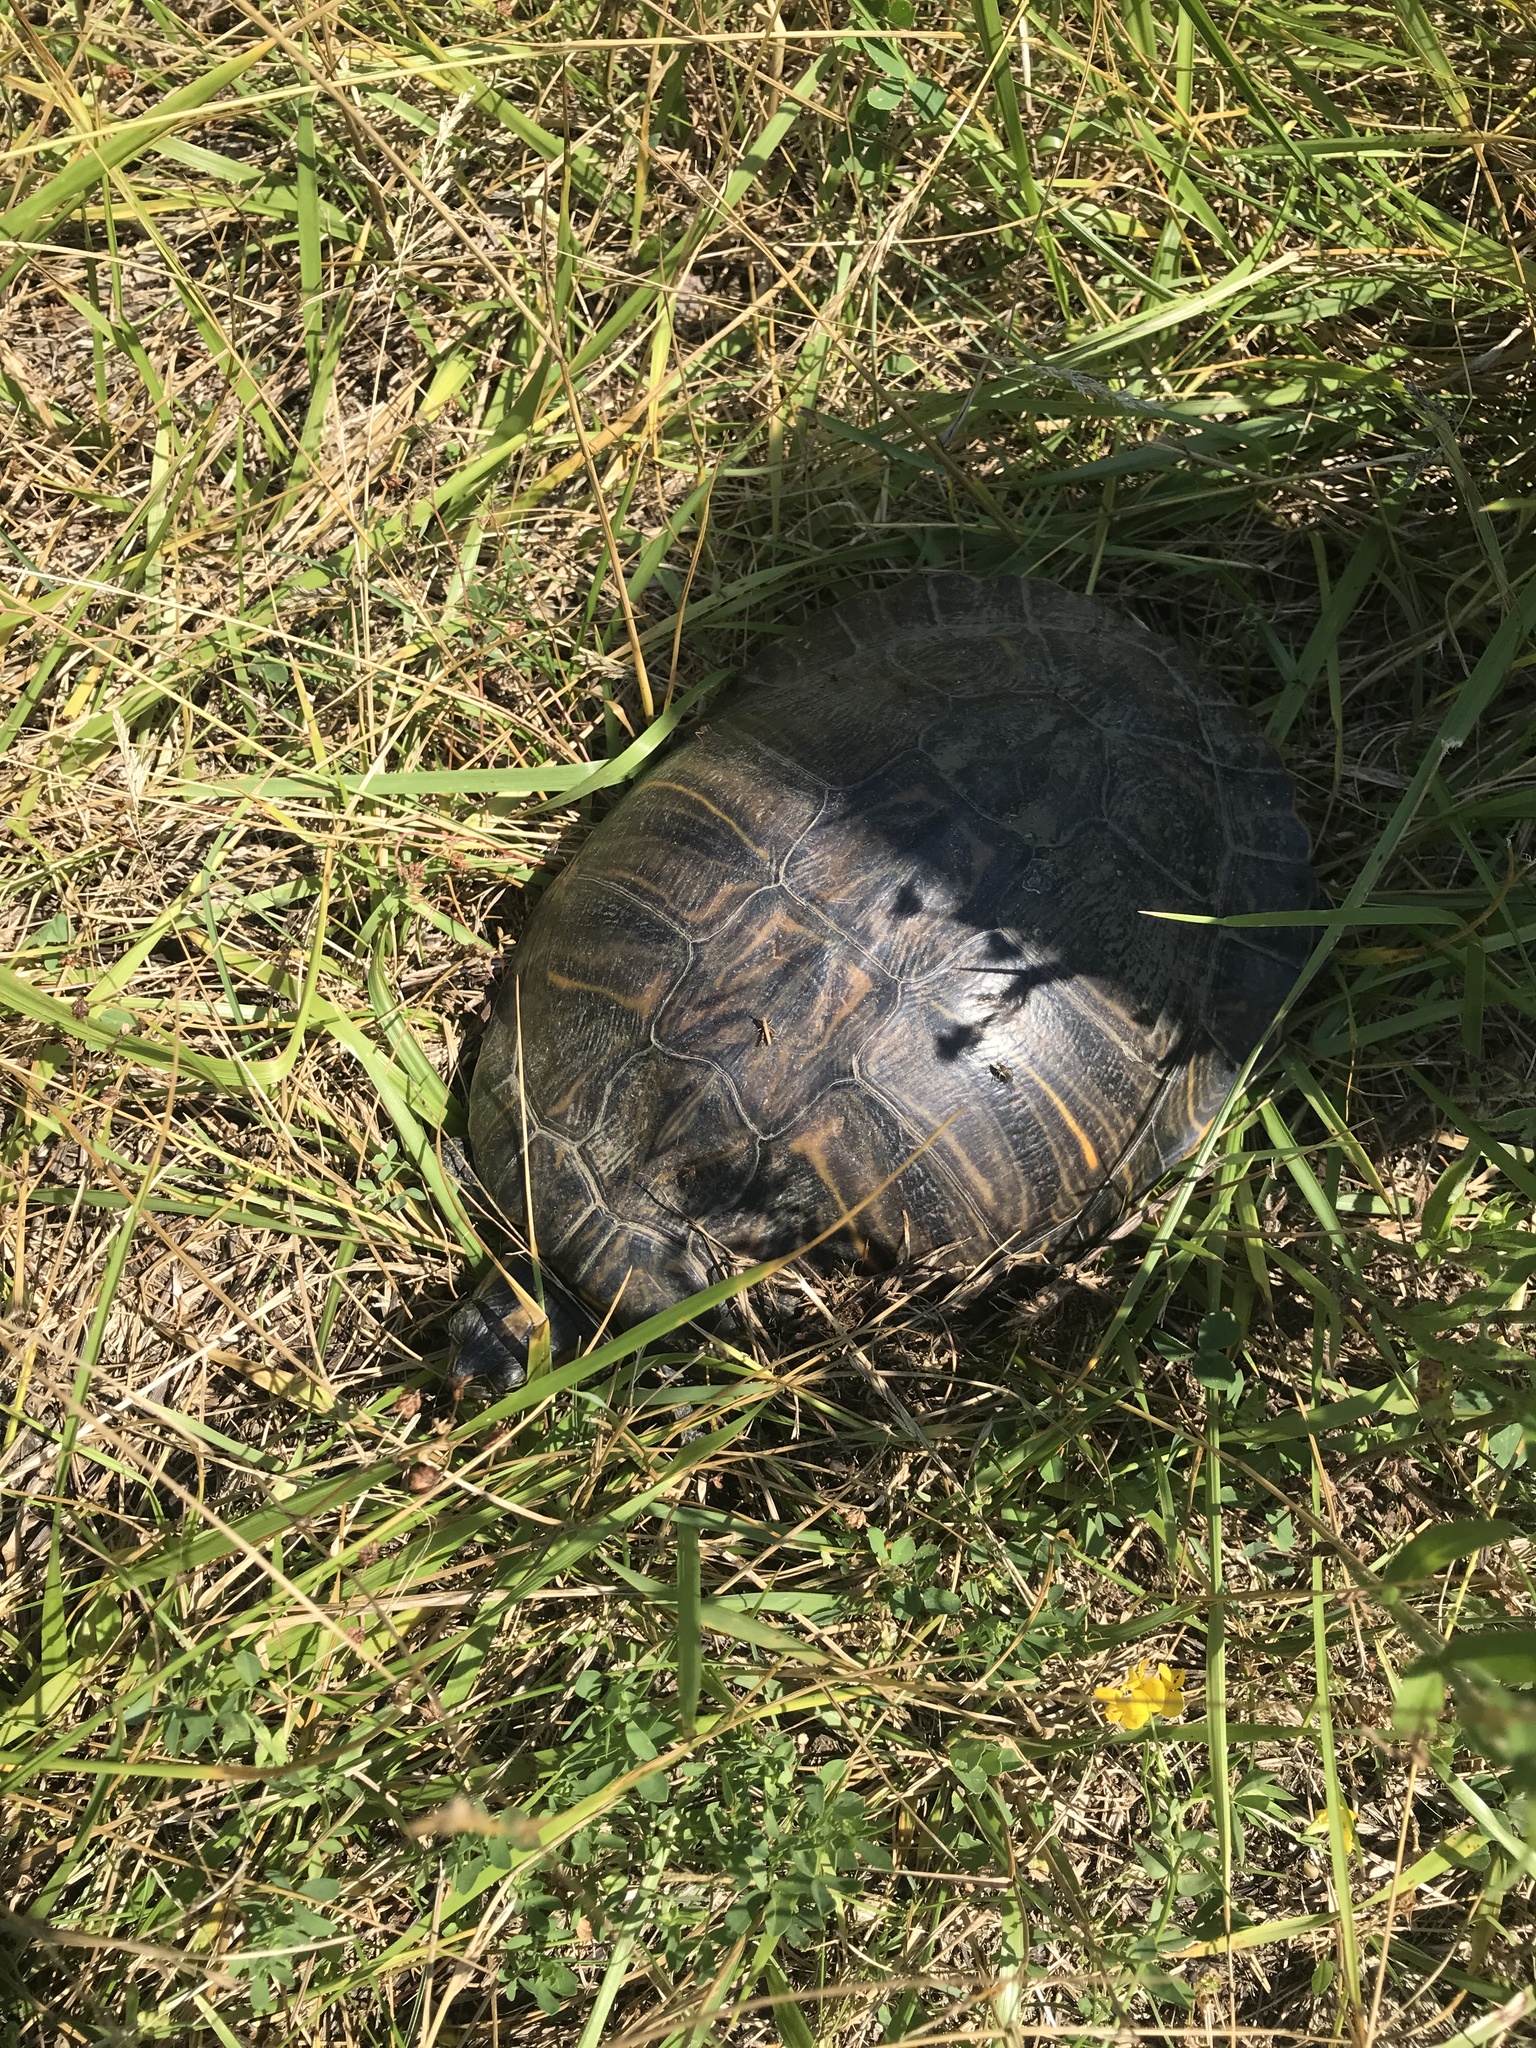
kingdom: Animalia
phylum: Chordata
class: Testudines
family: Emydidae
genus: Trachemys
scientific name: Trachemys scripta
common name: Slider
